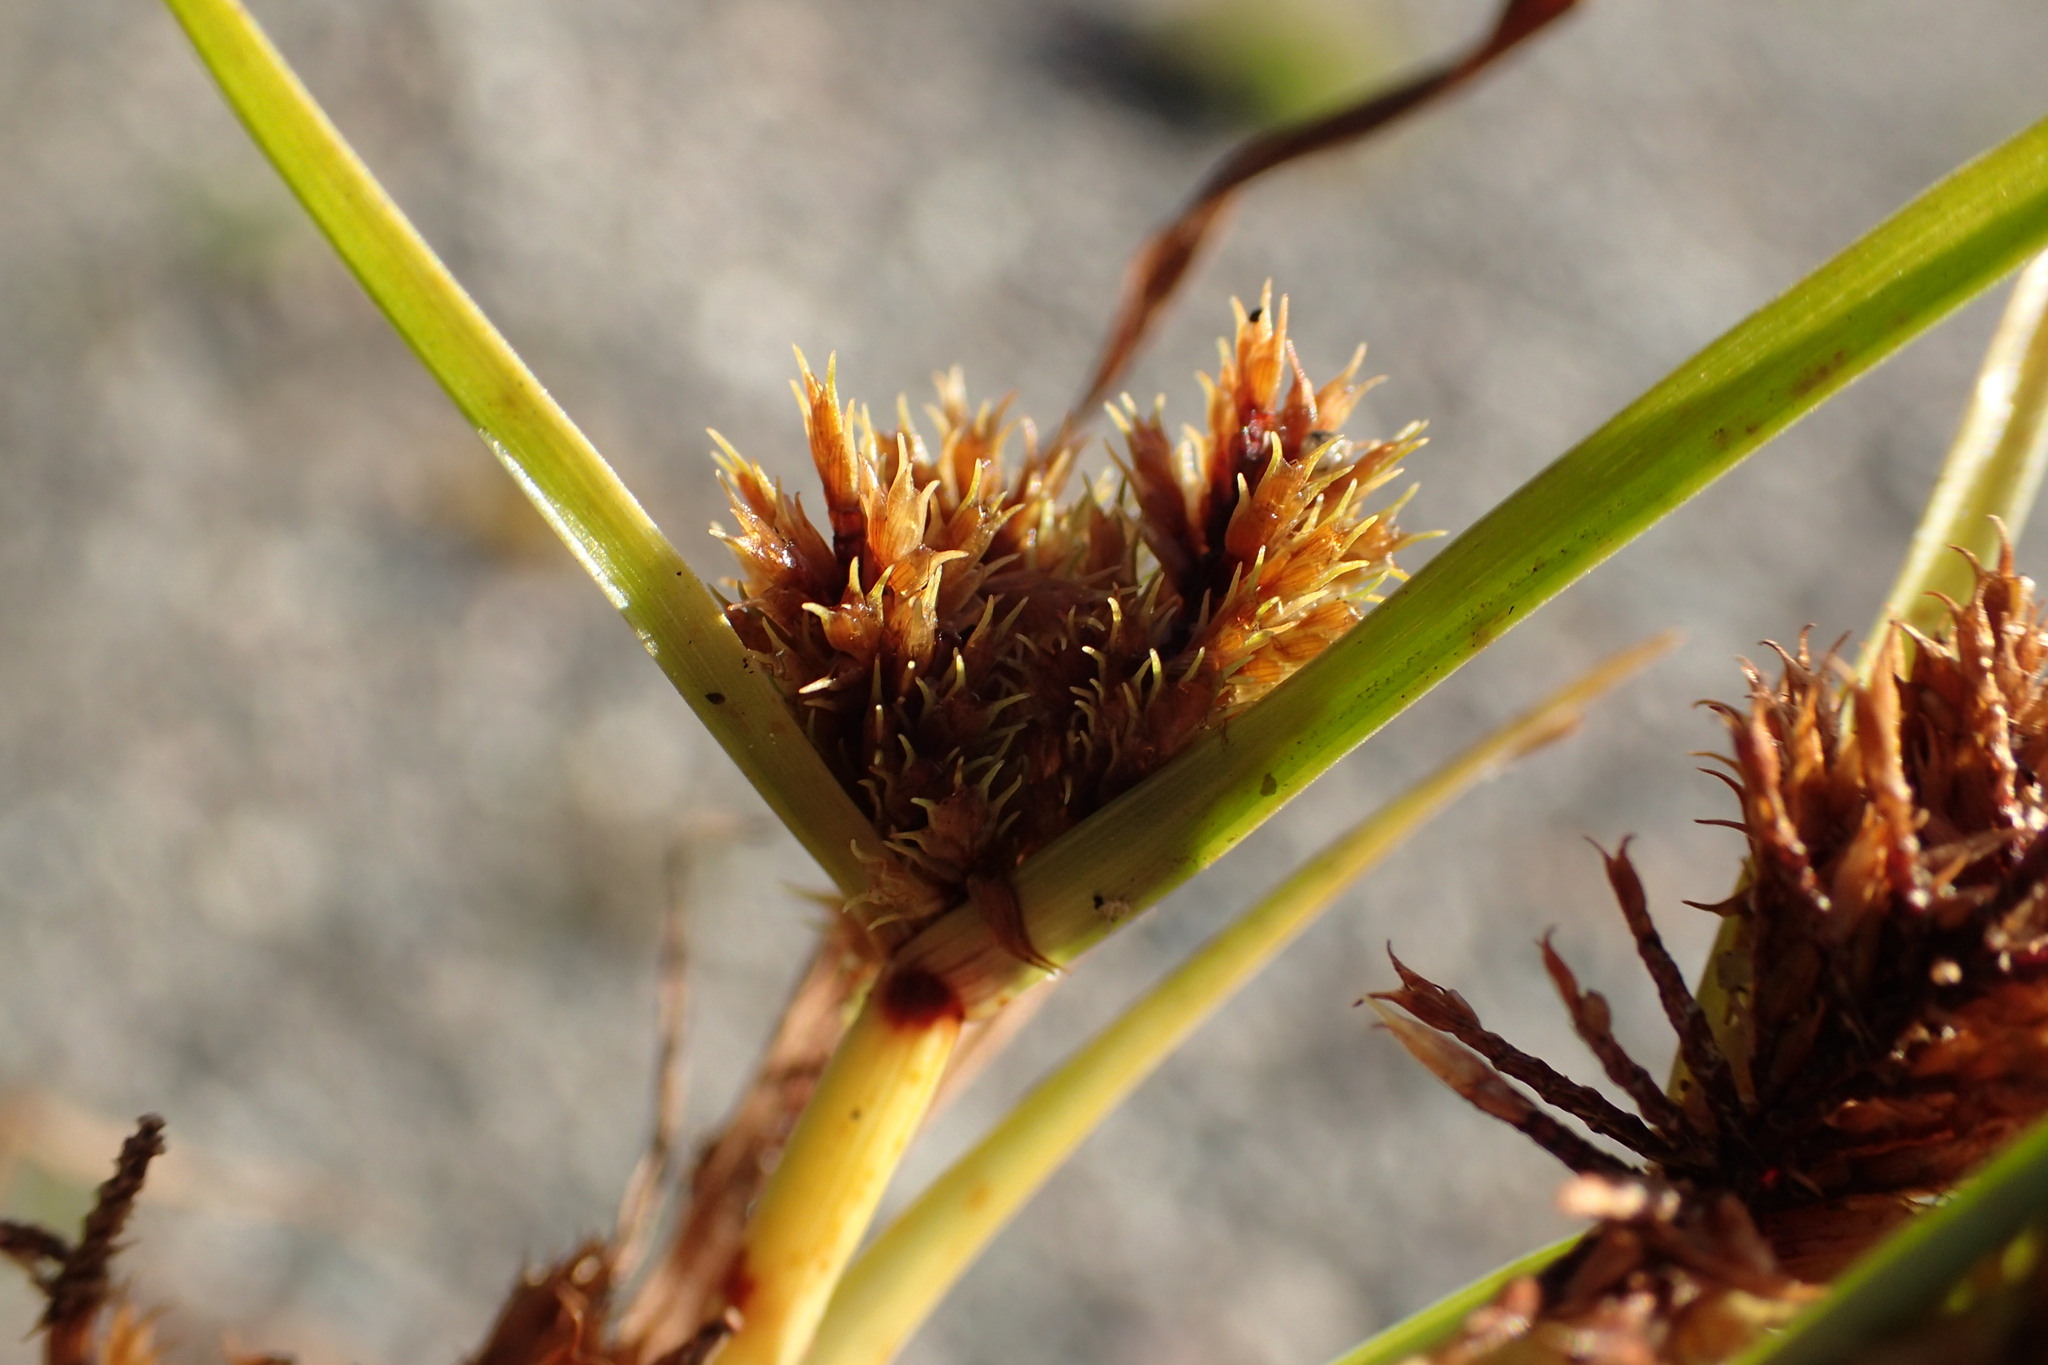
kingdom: Plantae
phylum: Tracheophyta
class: Liliopsida
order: Poales
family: Cyperaceae
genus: Cyperus
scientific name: Cyperus squarrosus
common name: Awned cyperus
